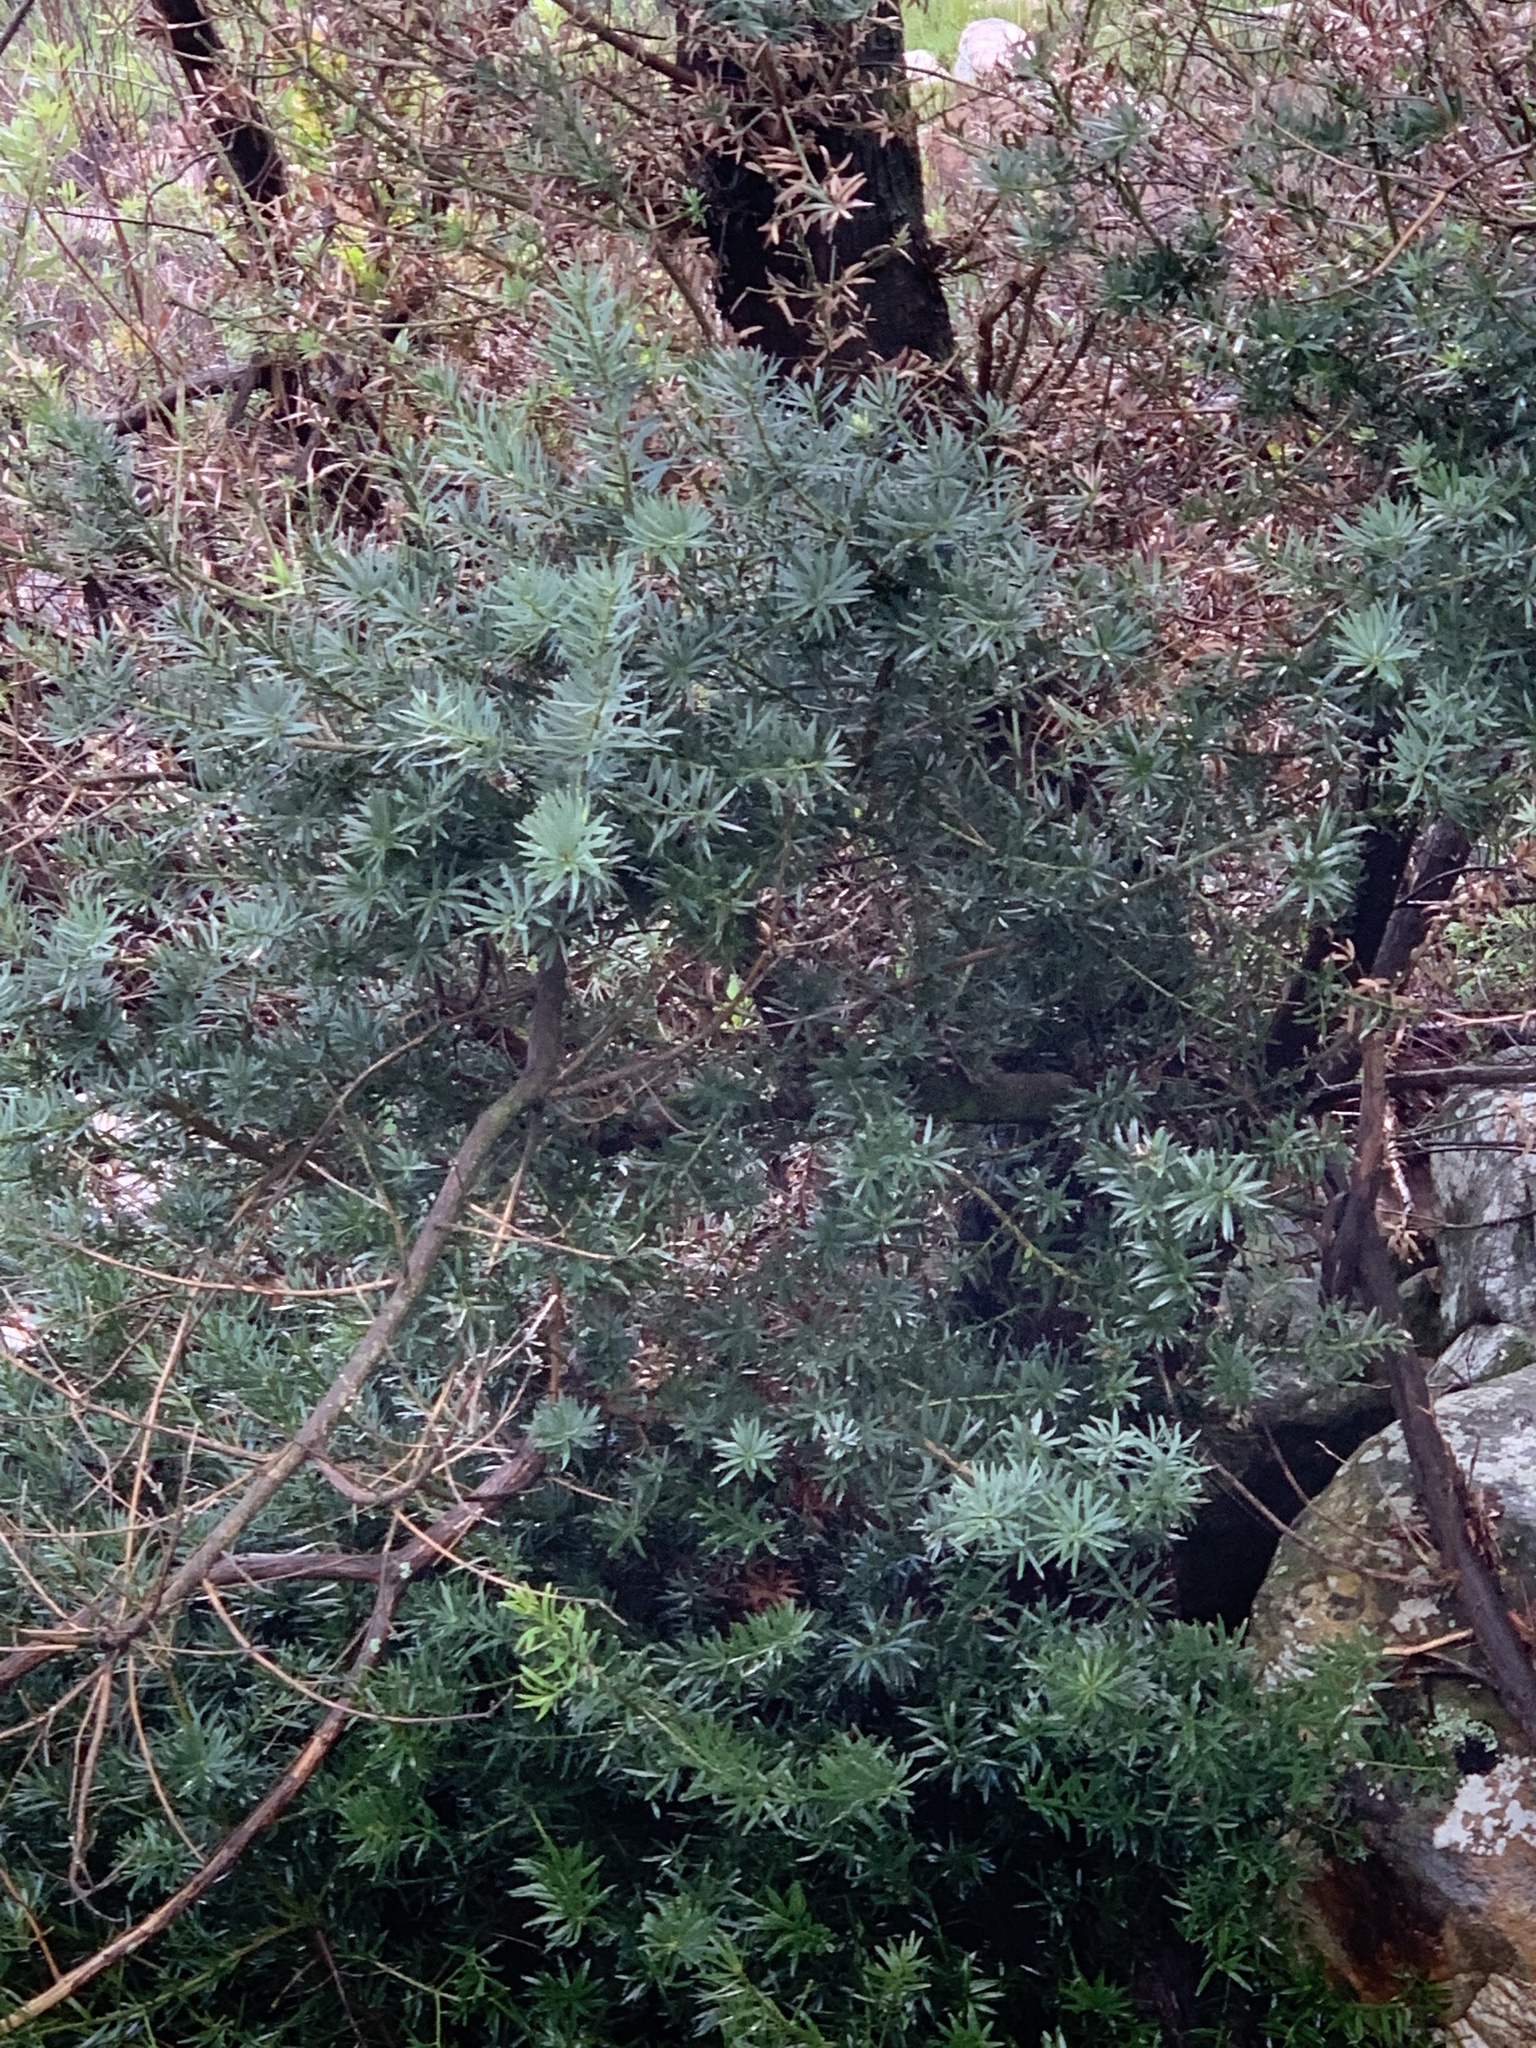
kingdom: Plantae
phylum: Tracheophyta
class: Pinopsida
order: Pinales
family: Podocarpaceae
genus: Podocarpus
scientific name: Podocarpus latifolius
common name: True yellowwood
